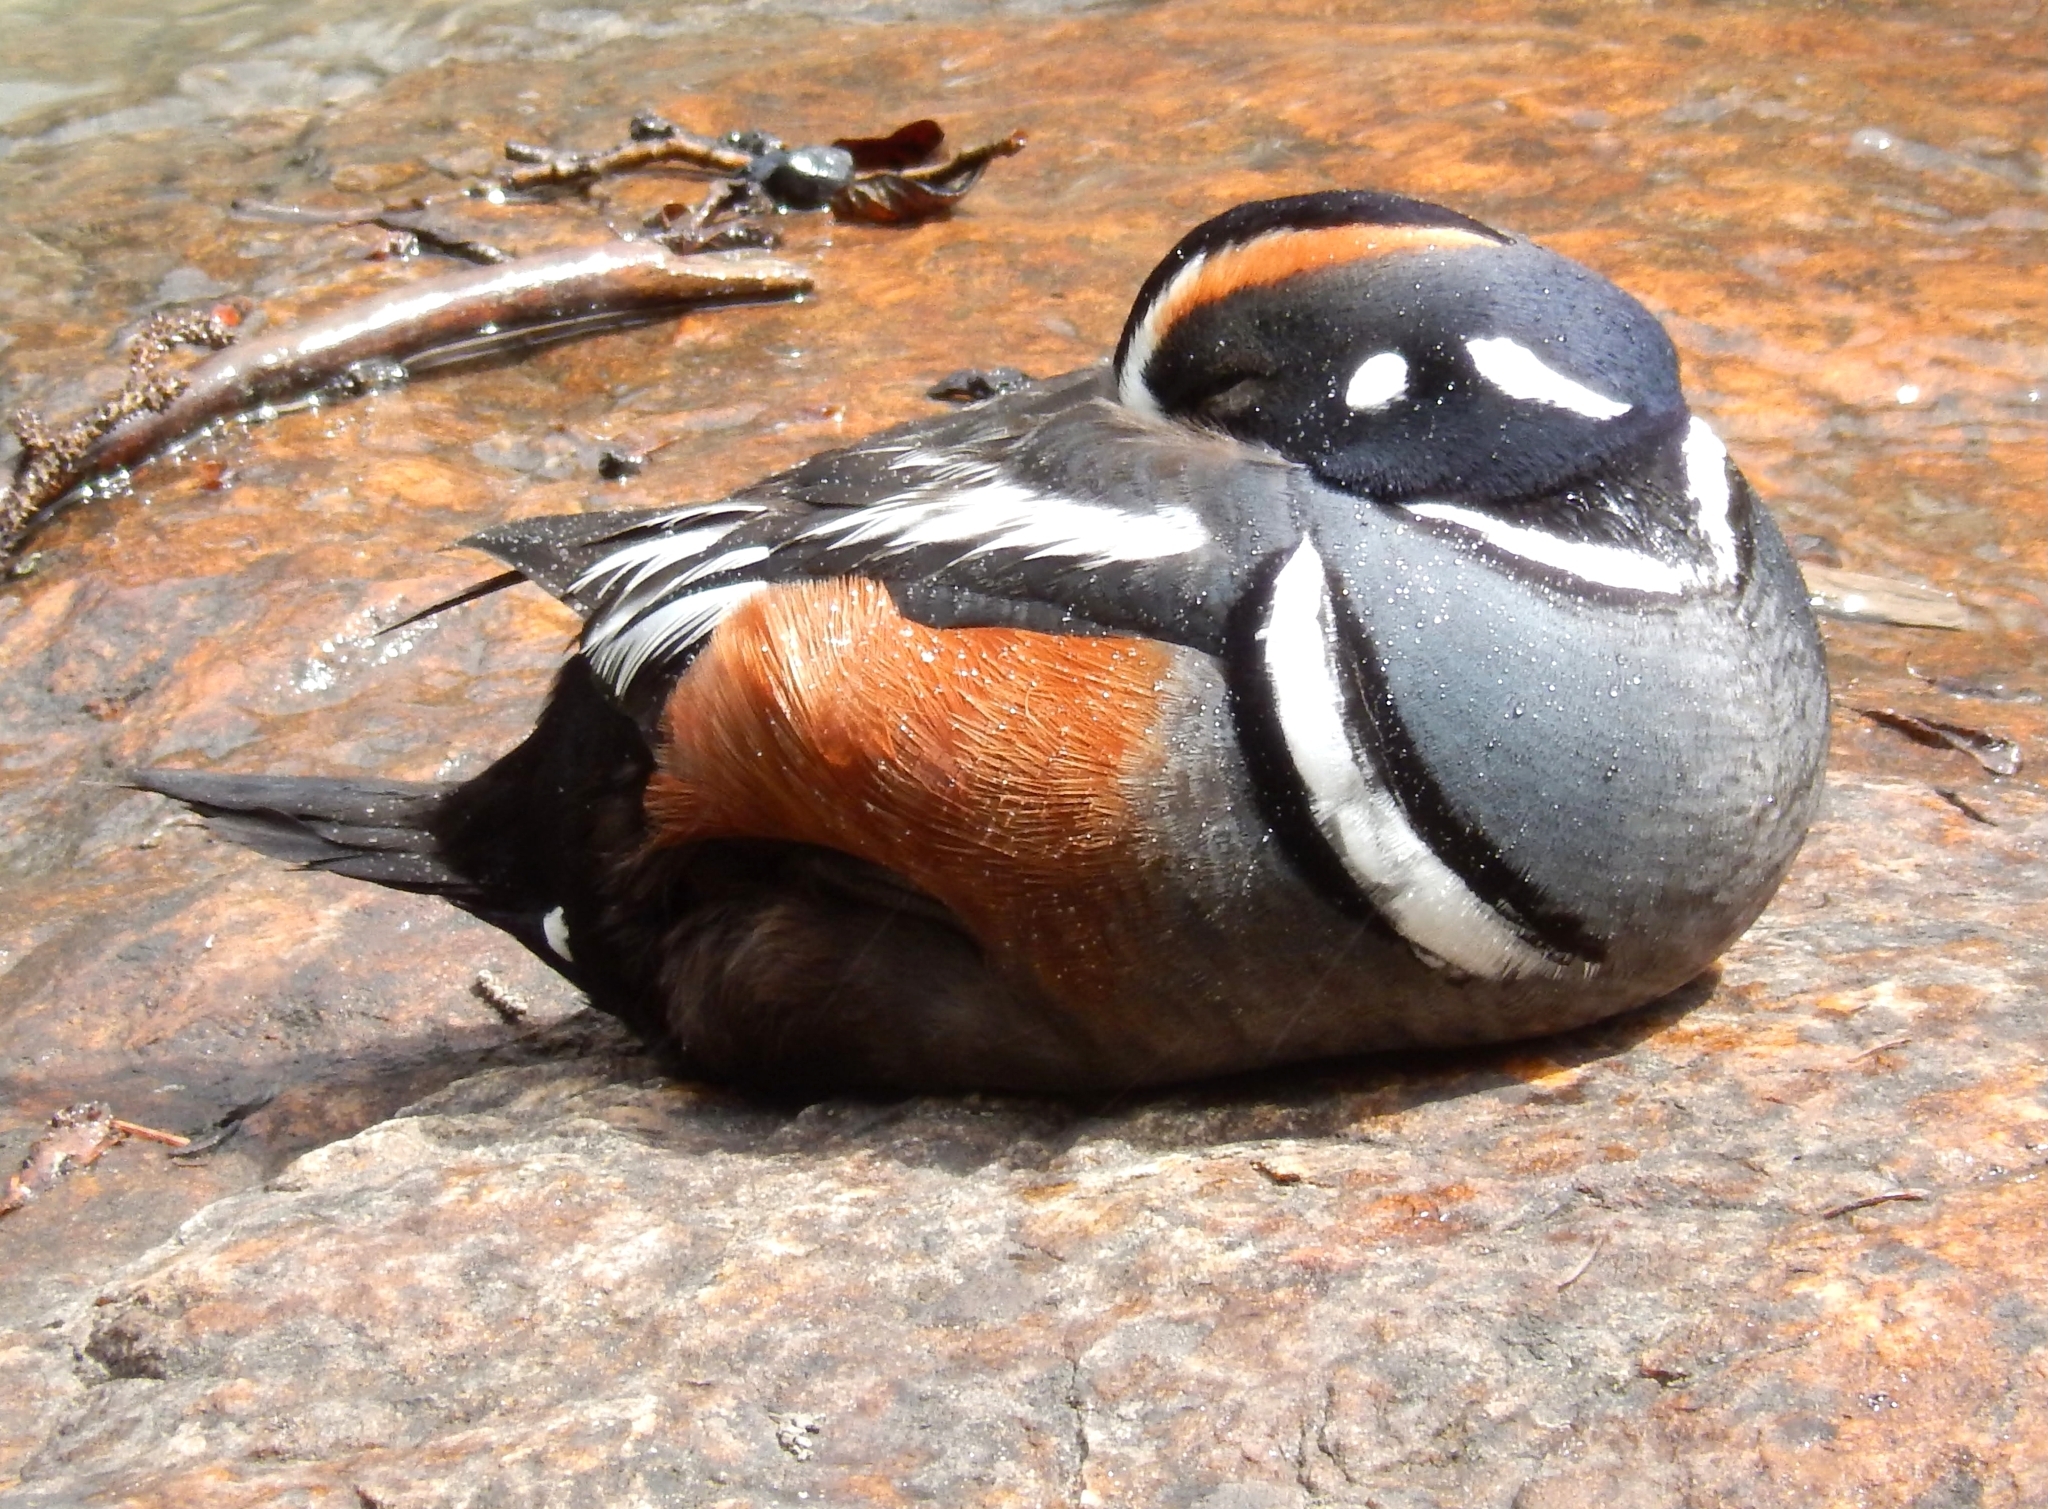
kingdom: Animalia
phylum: Chordata
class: Aves
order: Anseriformes
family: Anatidae
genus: Histrionicus
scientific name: Histrionicus histrionicus
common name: Harlequin duck
